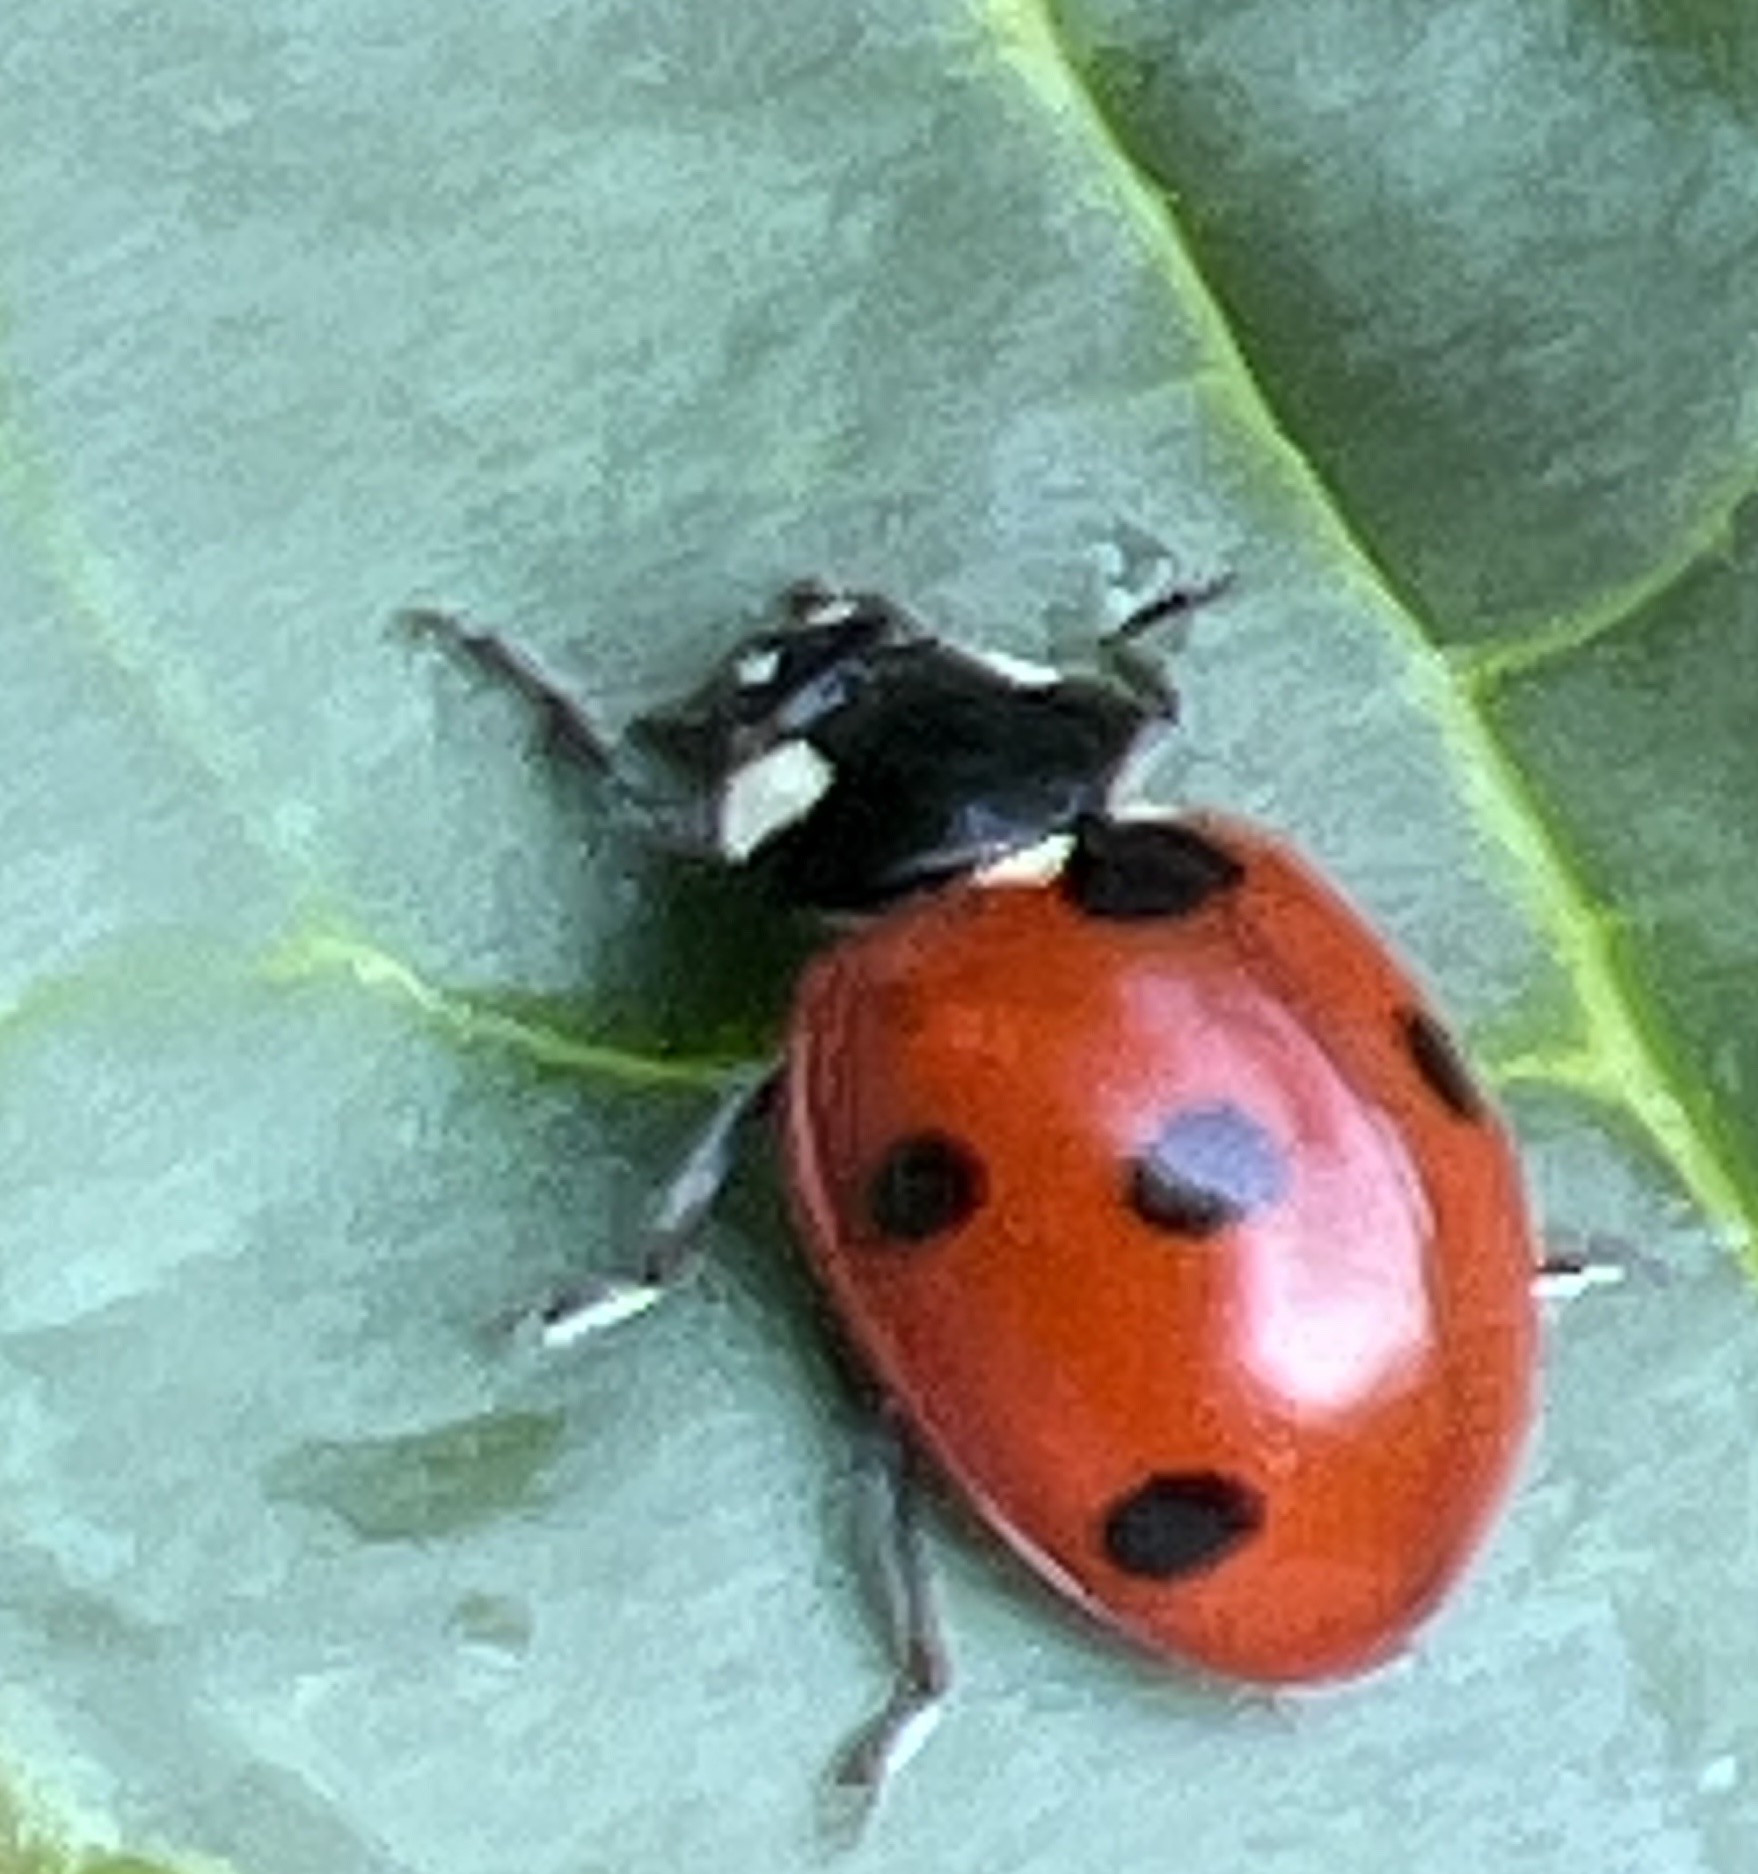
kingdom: Animalia
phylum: Arthropoda
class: Insecta
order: Coleoptera
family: Coccinellidae
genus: Coccinella
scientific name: Coccinella septempunctata
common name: Sevenspotted lady beetle
